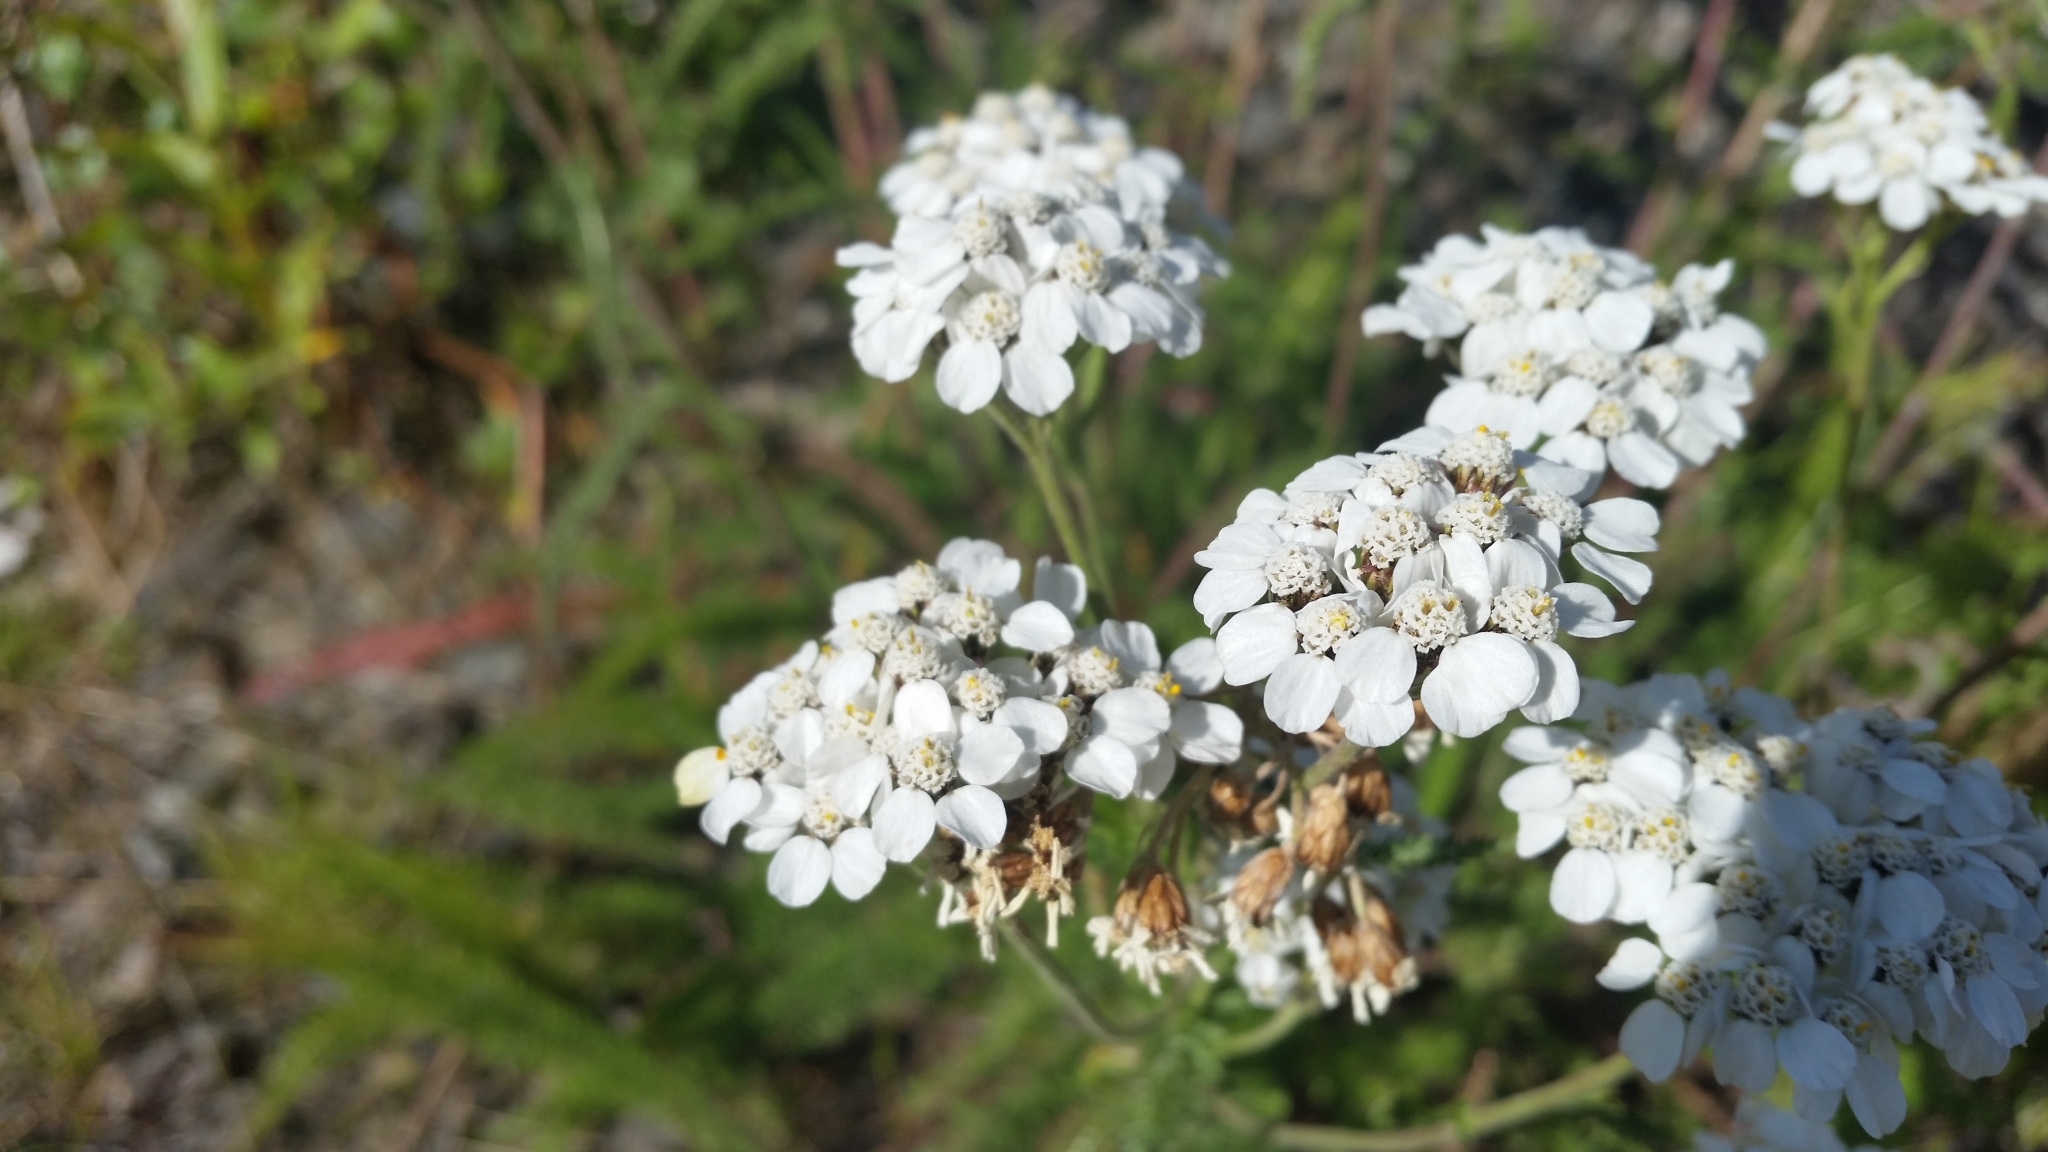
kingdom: Plantae
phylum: Tracheophyta
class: Magnoliopsida
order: Asterales
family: Asteraceae
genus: Achillea
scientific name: Achillea millefolium
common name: Yarrow
